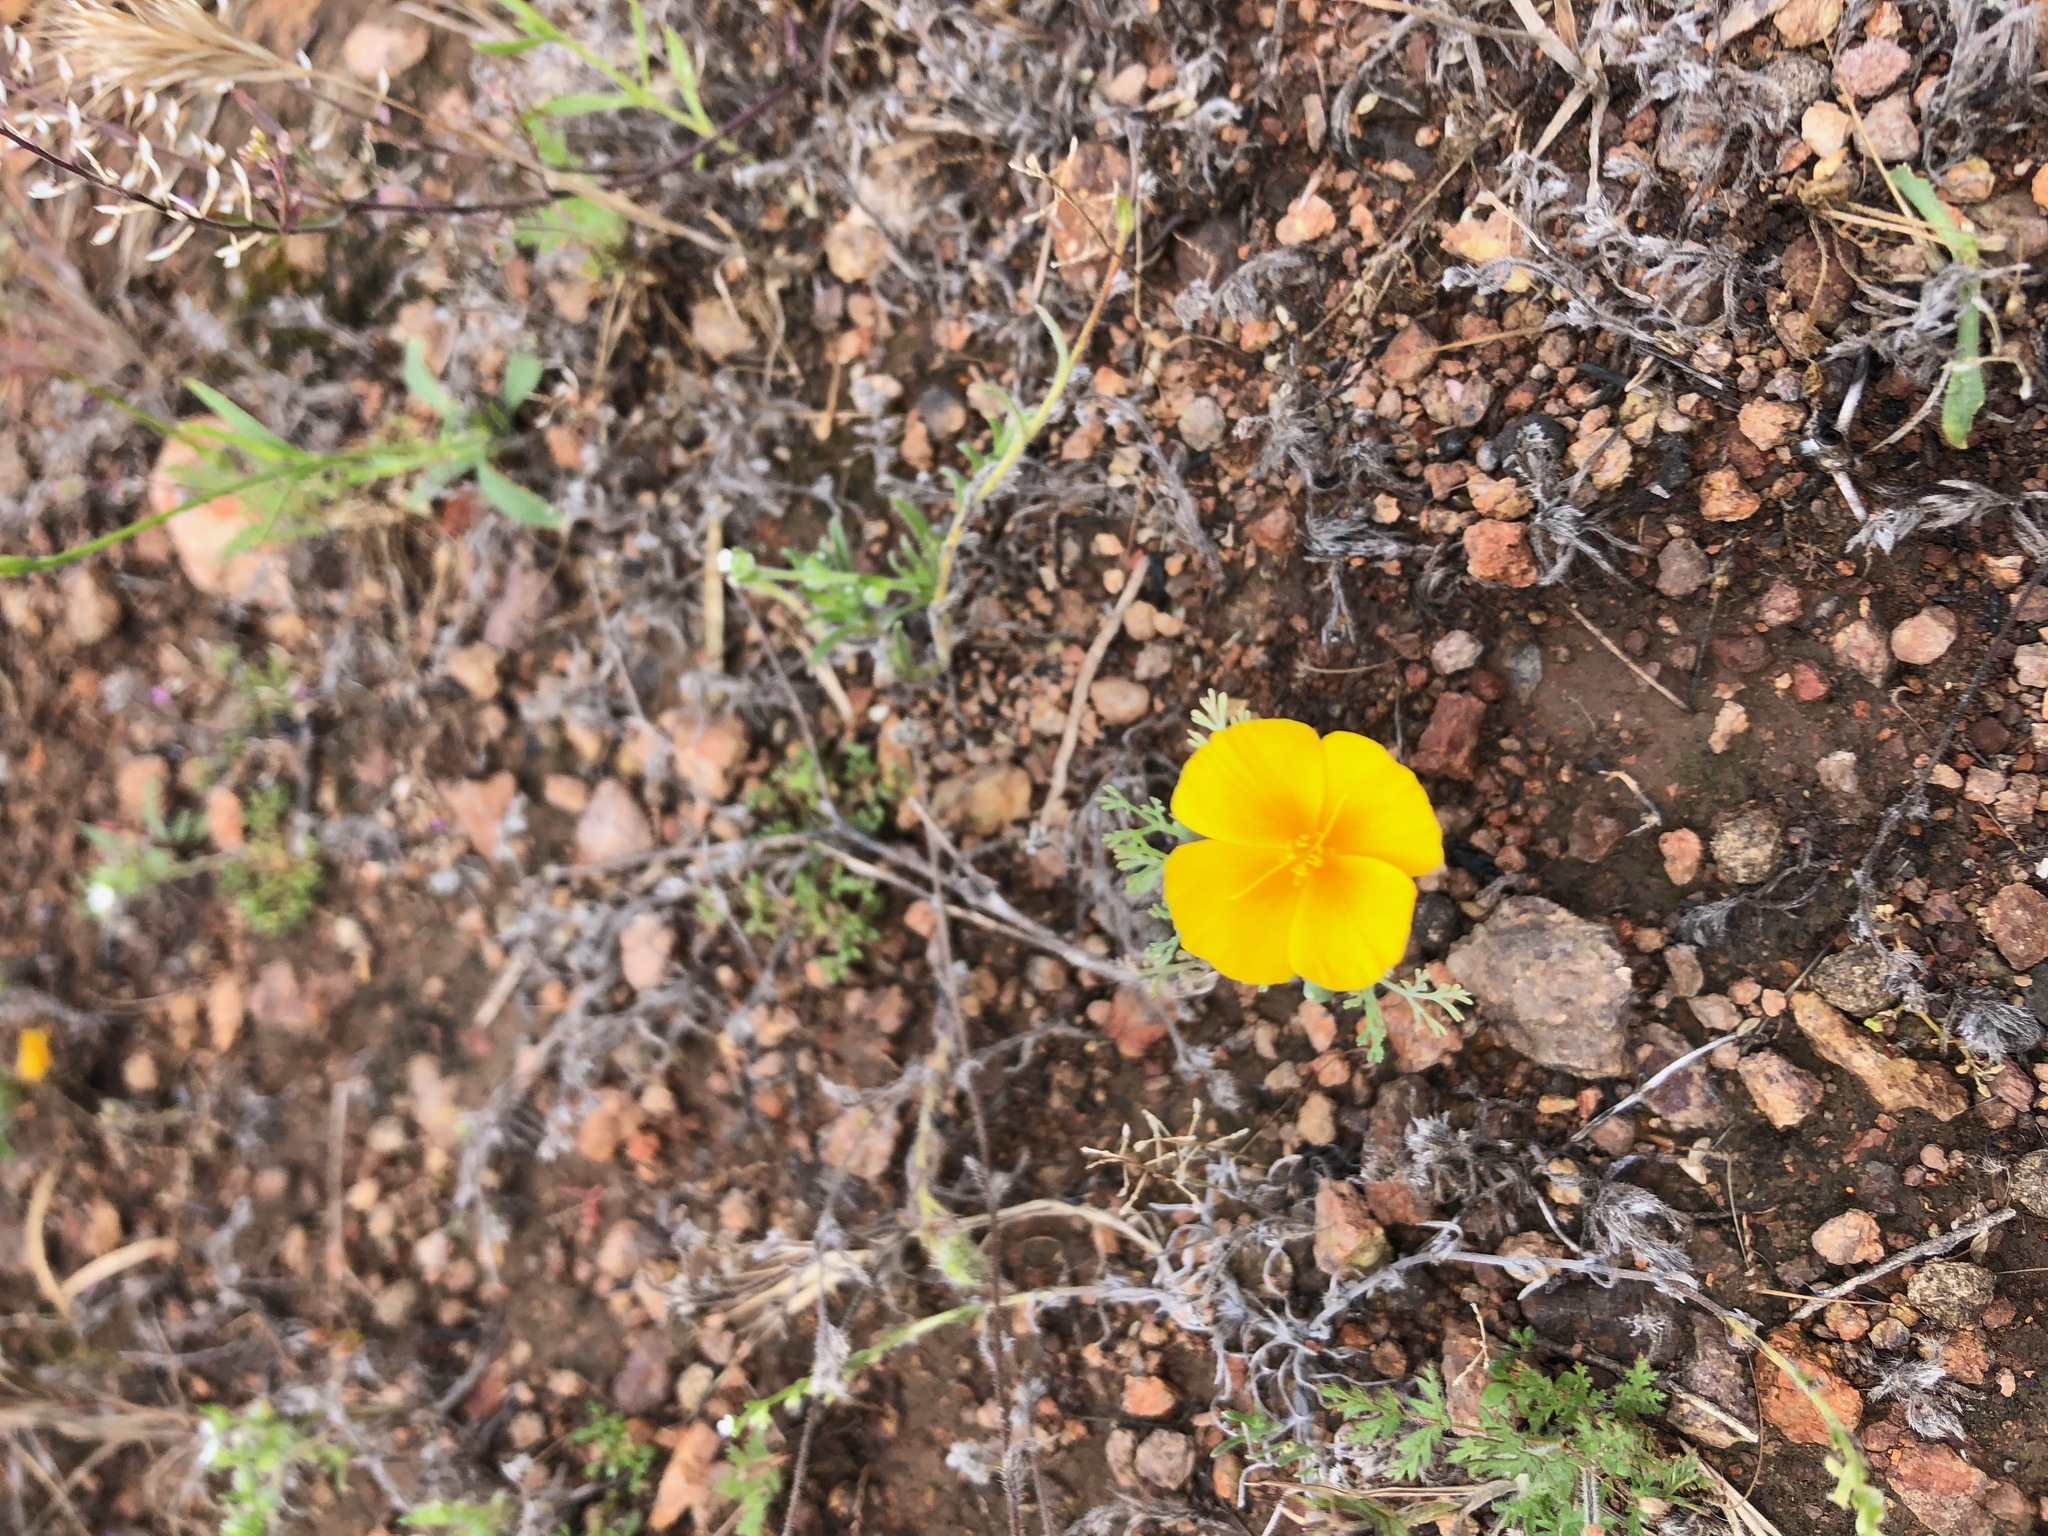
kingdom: Plantae
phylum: Tracheophyta
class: Magnoliopsida
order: Ranunculales
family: Papaveraceae
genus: Eschscholzia
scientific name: Eschscholzia californica
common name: California poppy
